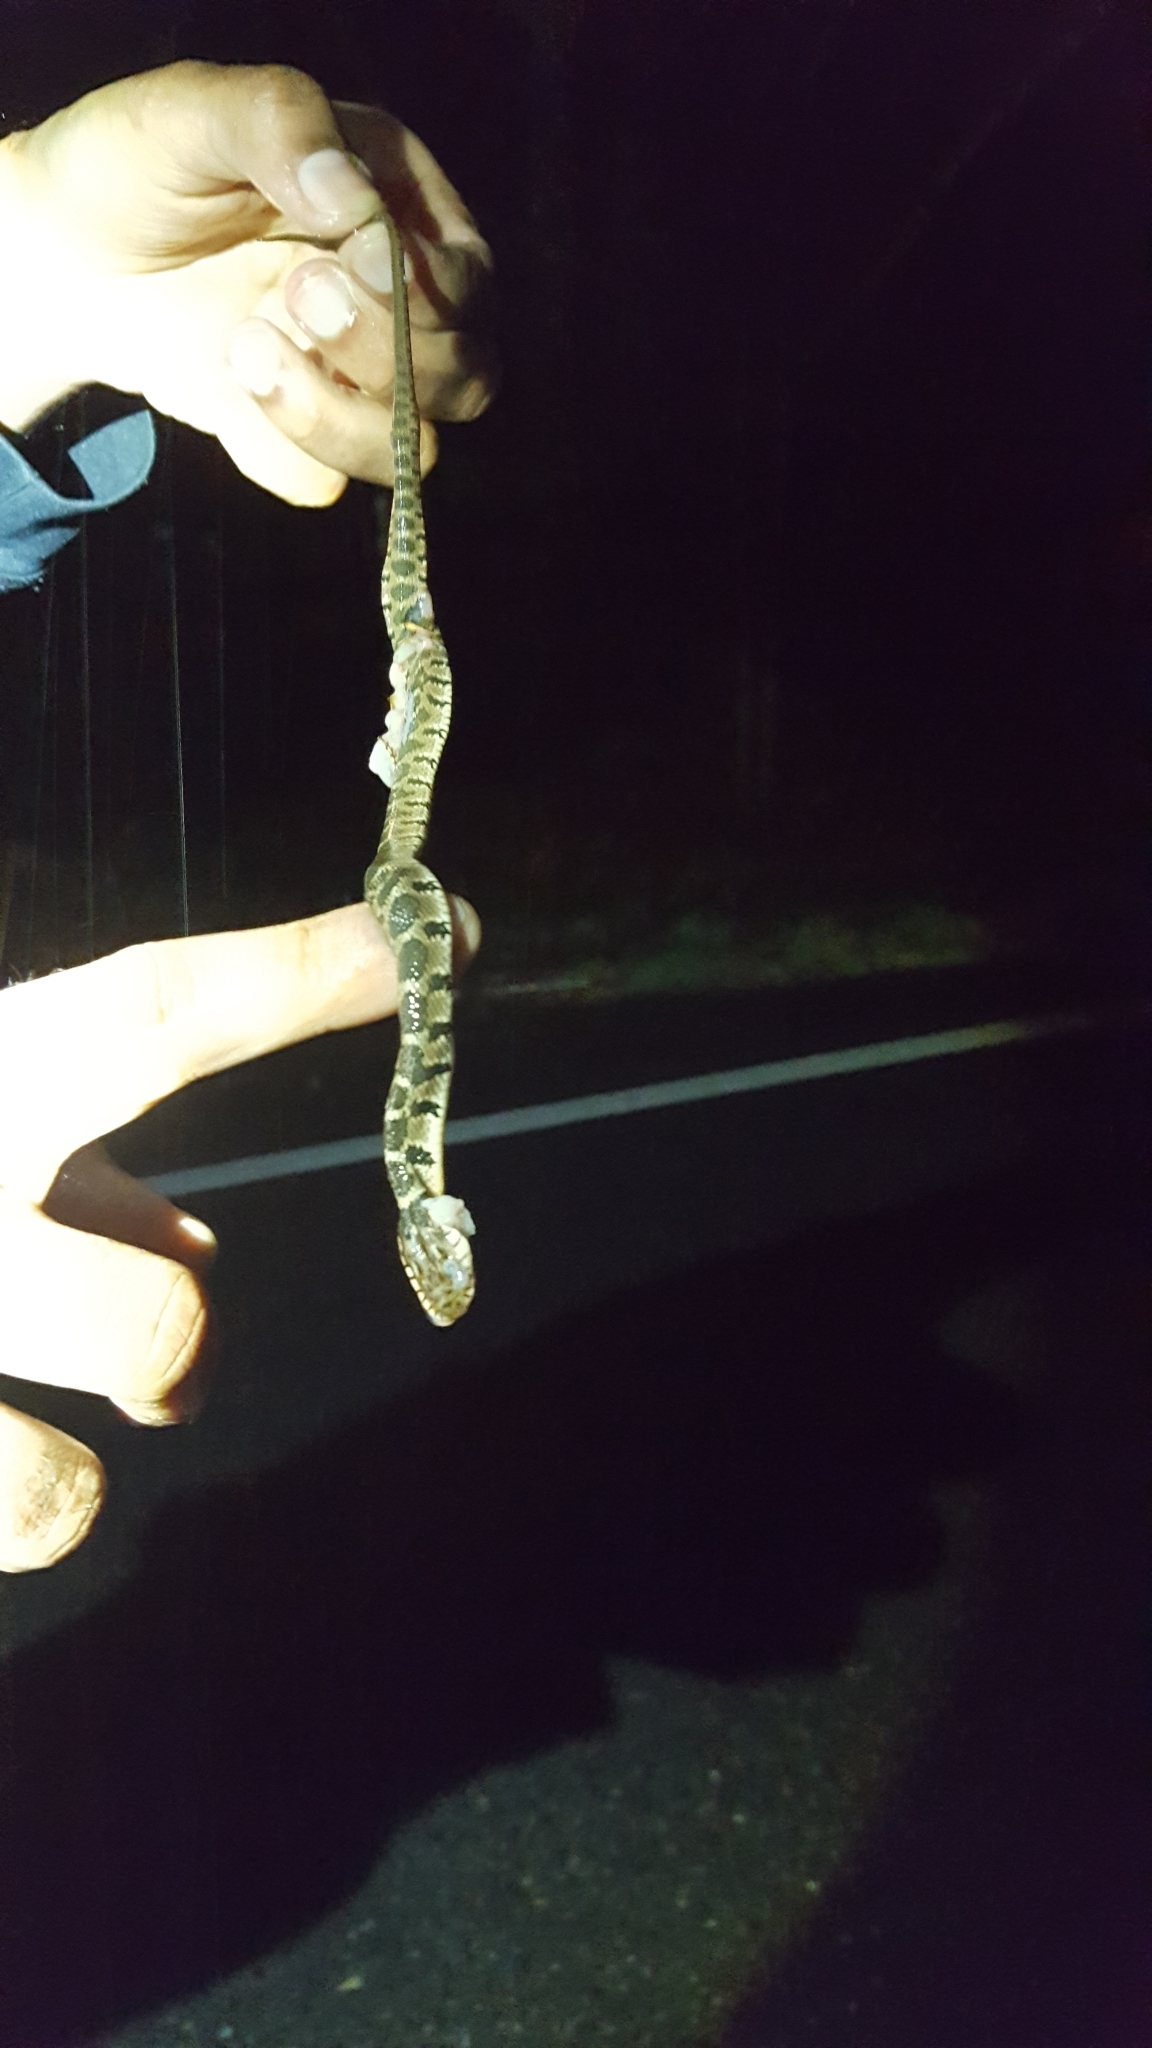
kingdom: Animalia
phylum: Chordata
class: Squamata
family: Colubridae
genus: Nerodia
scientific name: Nerodia erythrogaster
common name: Plainbelly water snake
